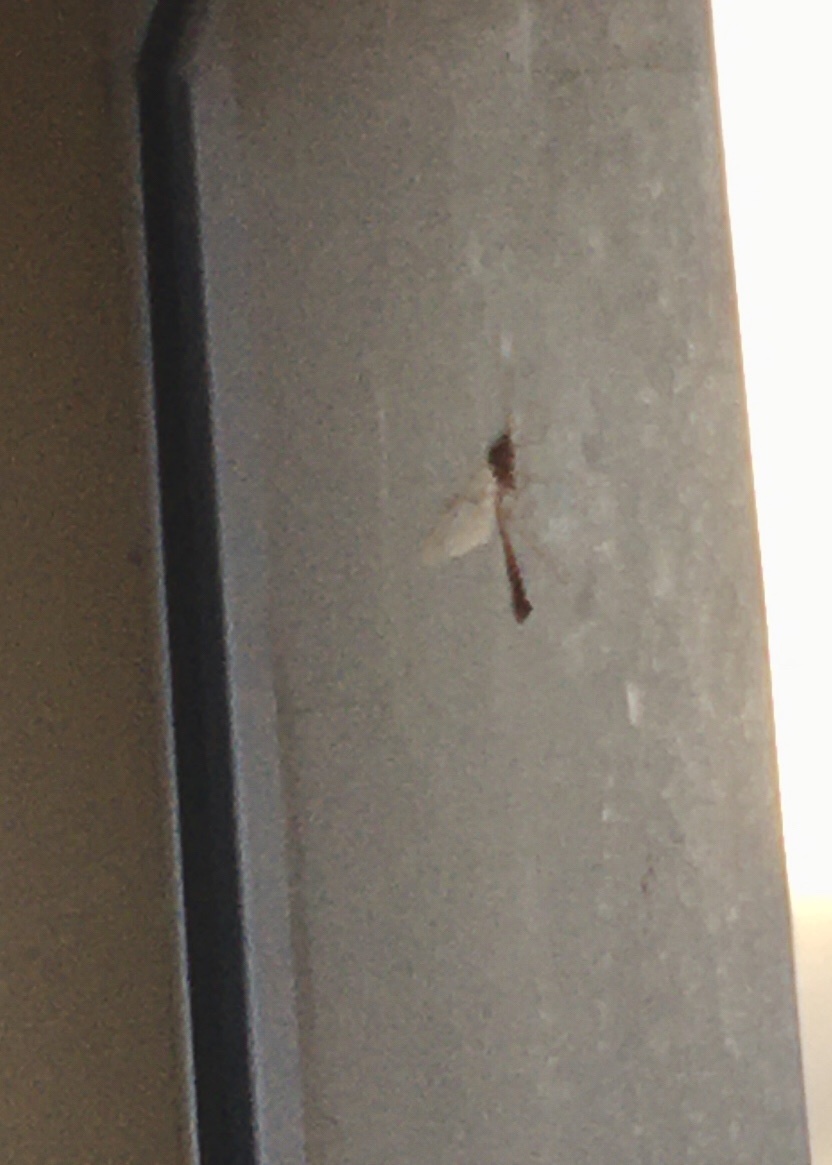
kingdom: Animalia
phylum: Arthropoda
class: Insecta
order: Hymenoptera
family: Ichneumonidae
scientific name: Ichneumonidae
